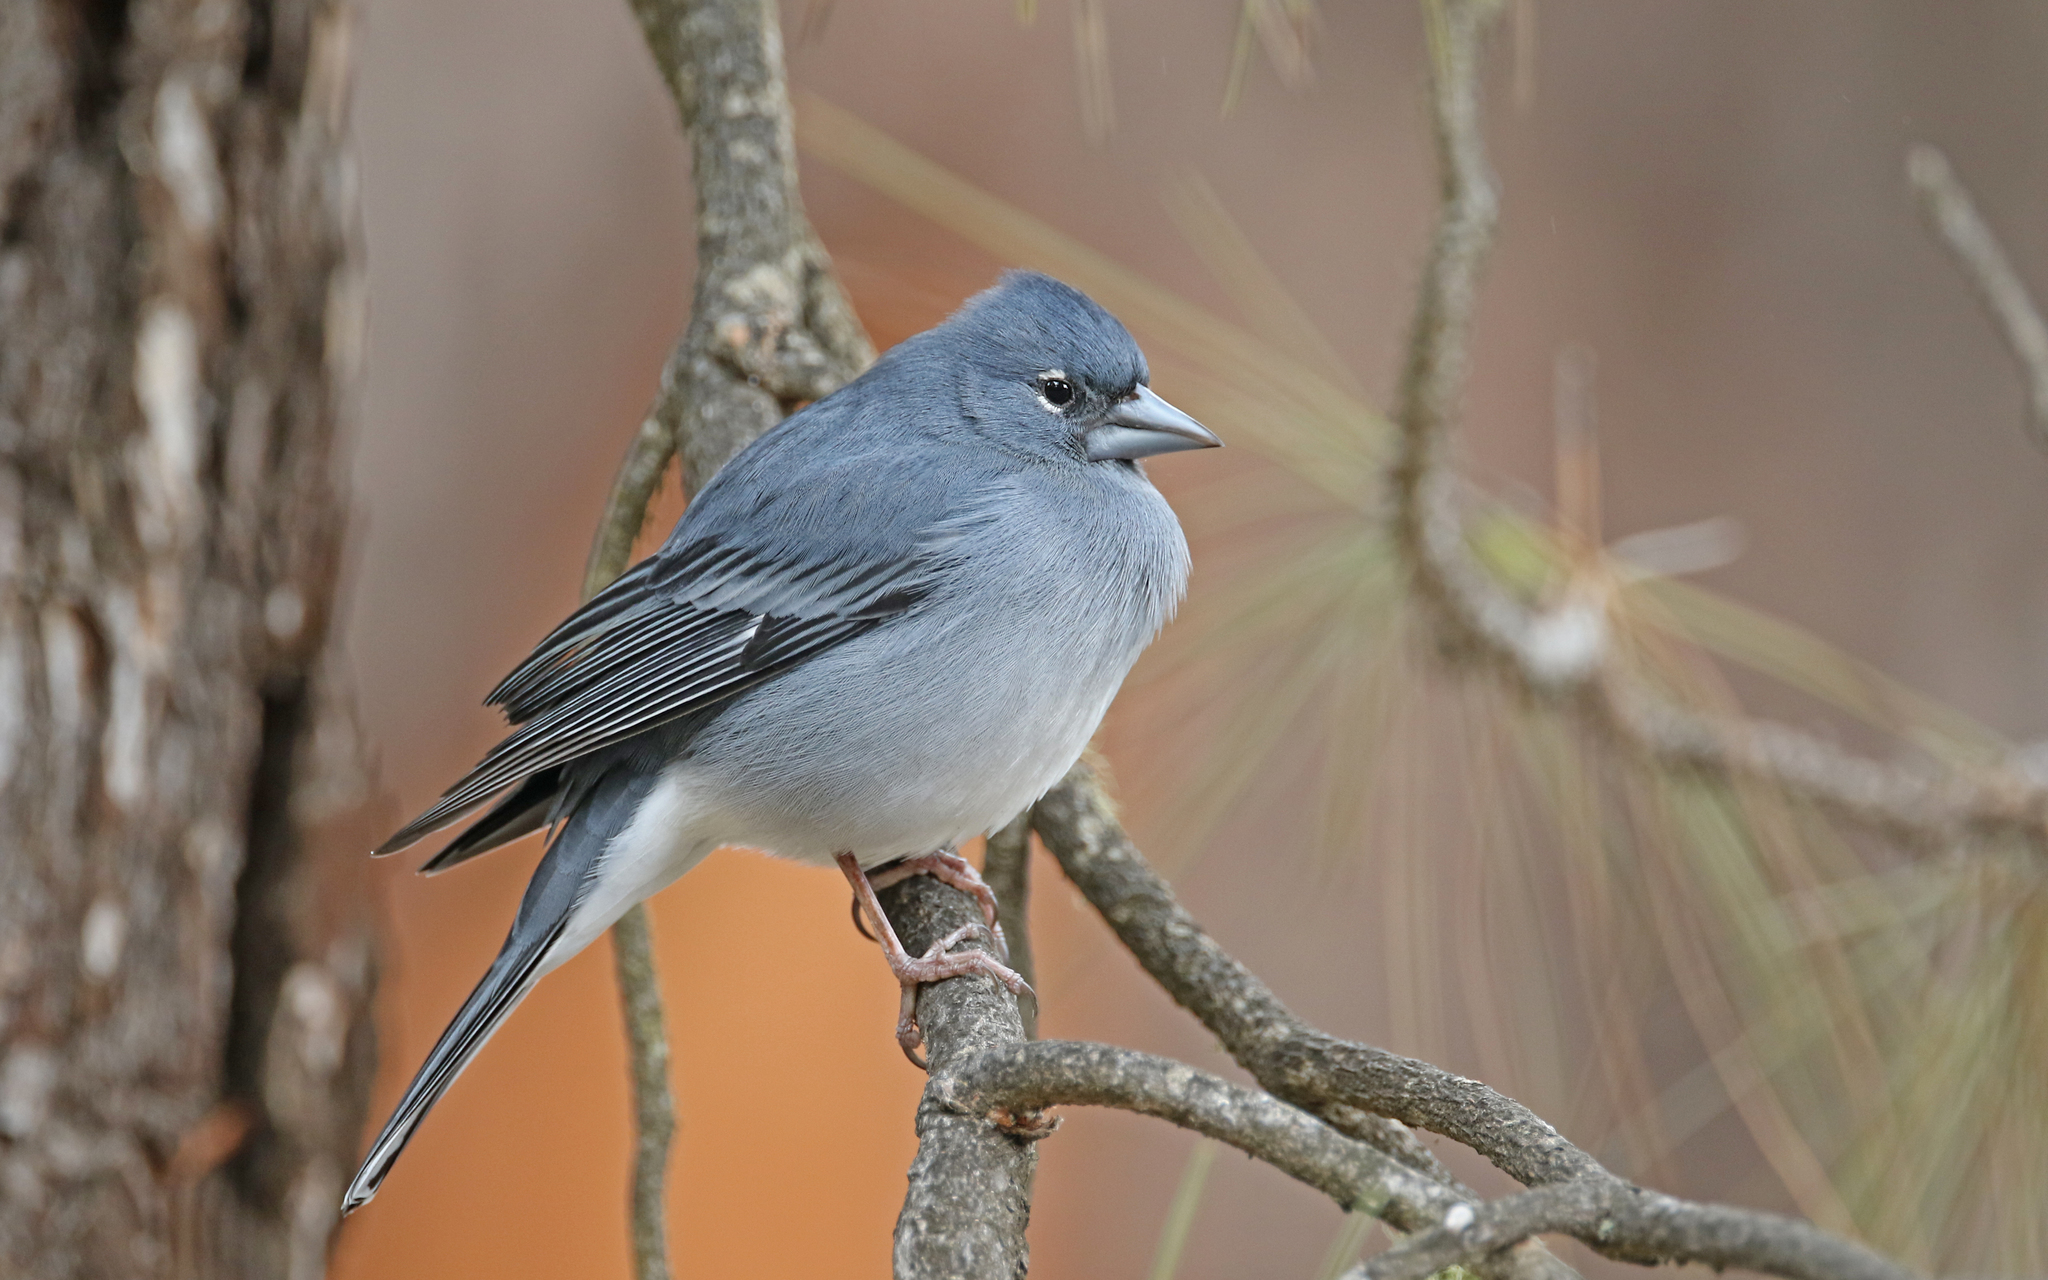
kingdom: Animalia
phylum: Chordata
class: Aves
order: Passeriformes
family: Fringillidae
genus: Fringilla
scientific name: Fringilla teydea
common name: Blue chaffinch
